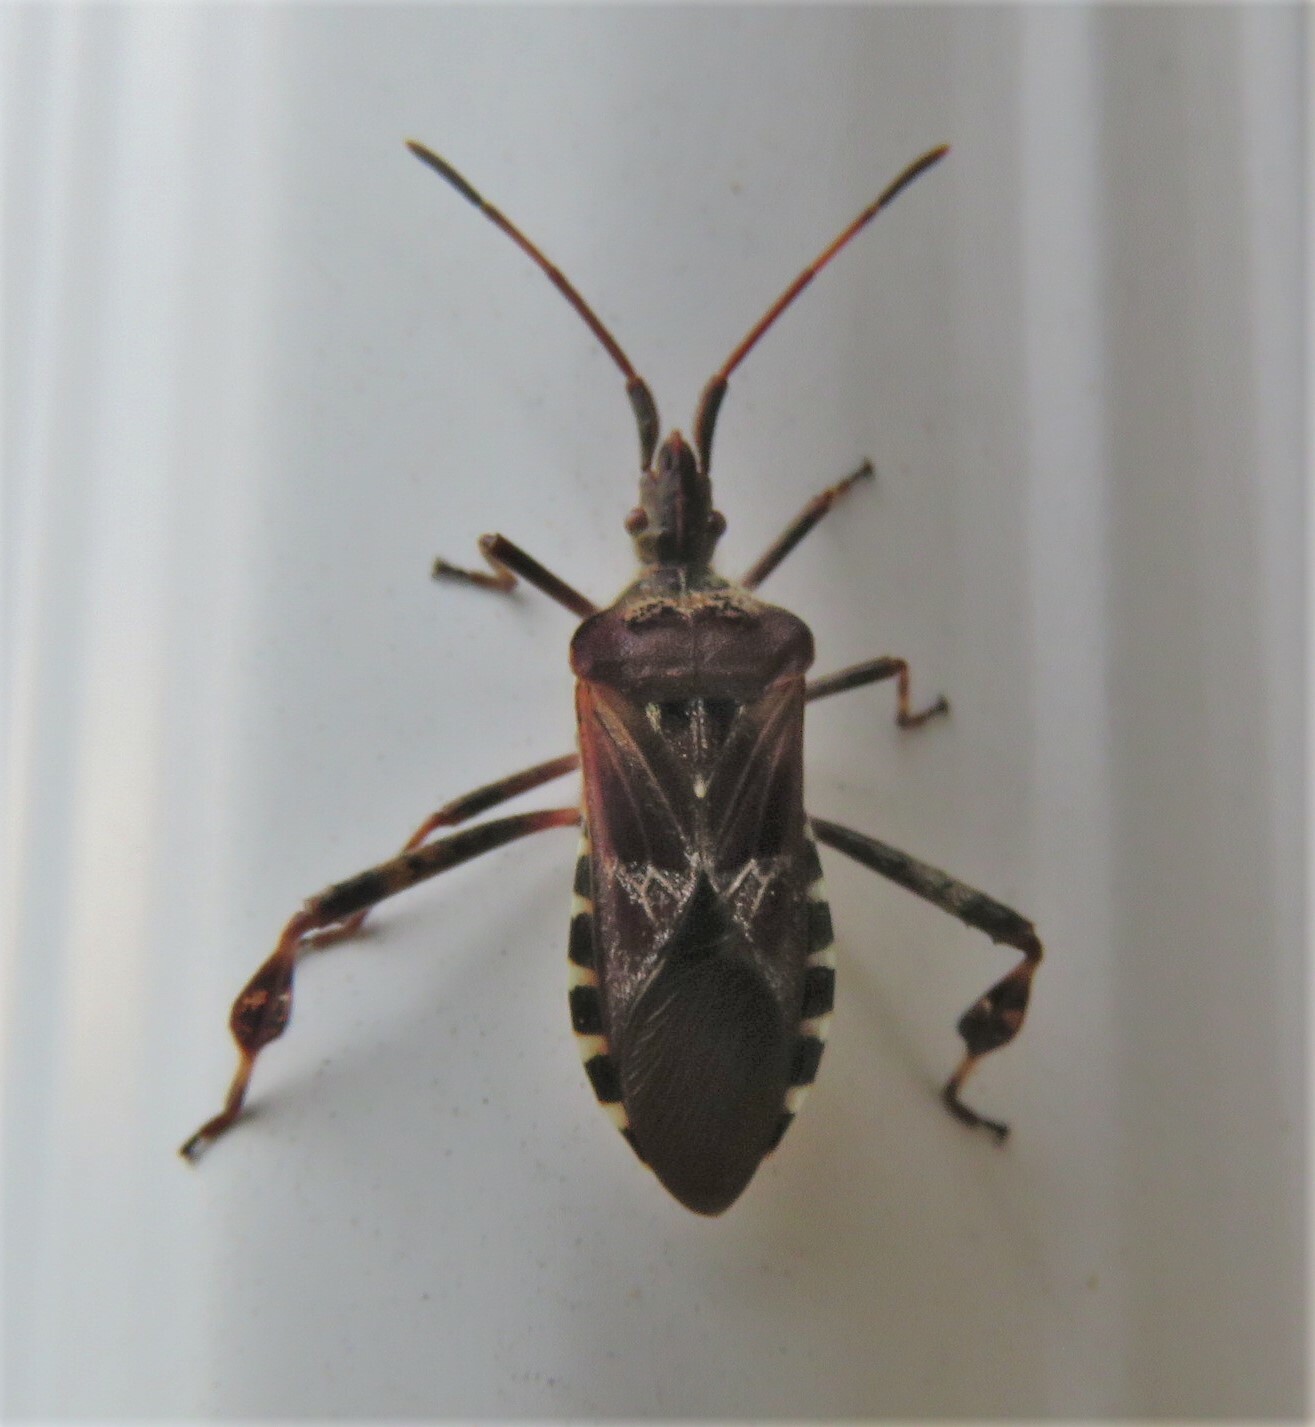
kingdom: Animalia
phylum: Arthropoda
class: Insecta
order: Hemiptera
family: Coreidae
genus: Leptoglossus
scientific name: Leptoglossus occidentalis
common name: Western conifer-seed bug
